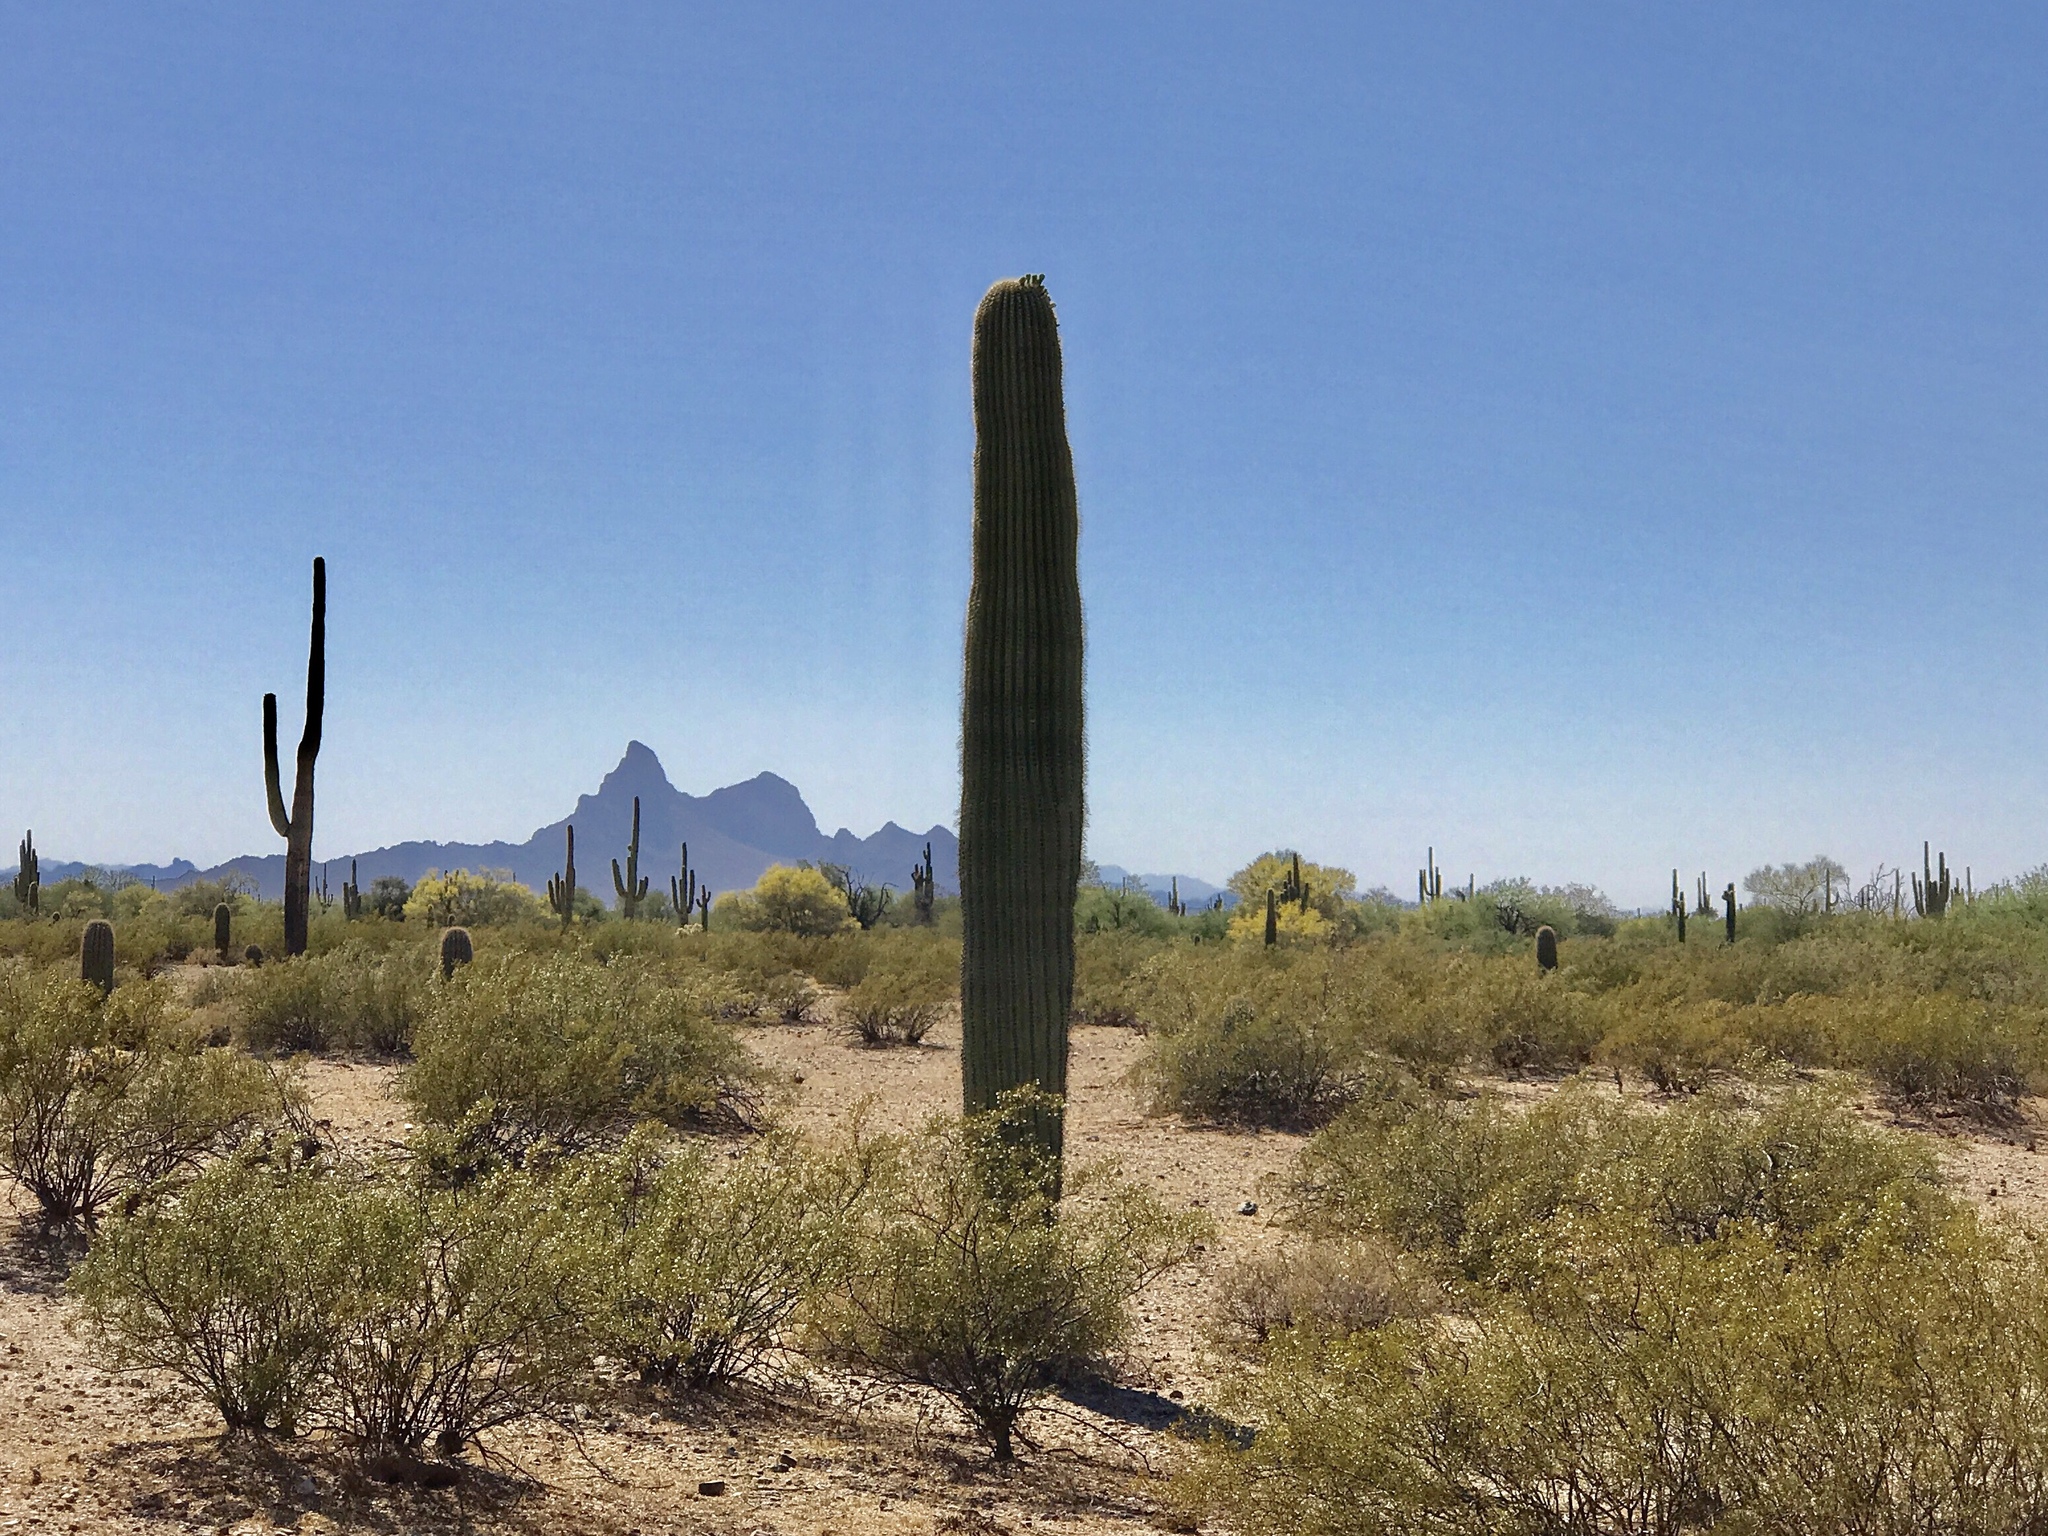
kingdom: Plantae
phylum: Tracheophyta
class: Magnoliopsida
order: Caryophyllales
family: Cactaceae
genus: Carnegiea
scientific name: Carnegiea gigantea
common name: Saguaro
